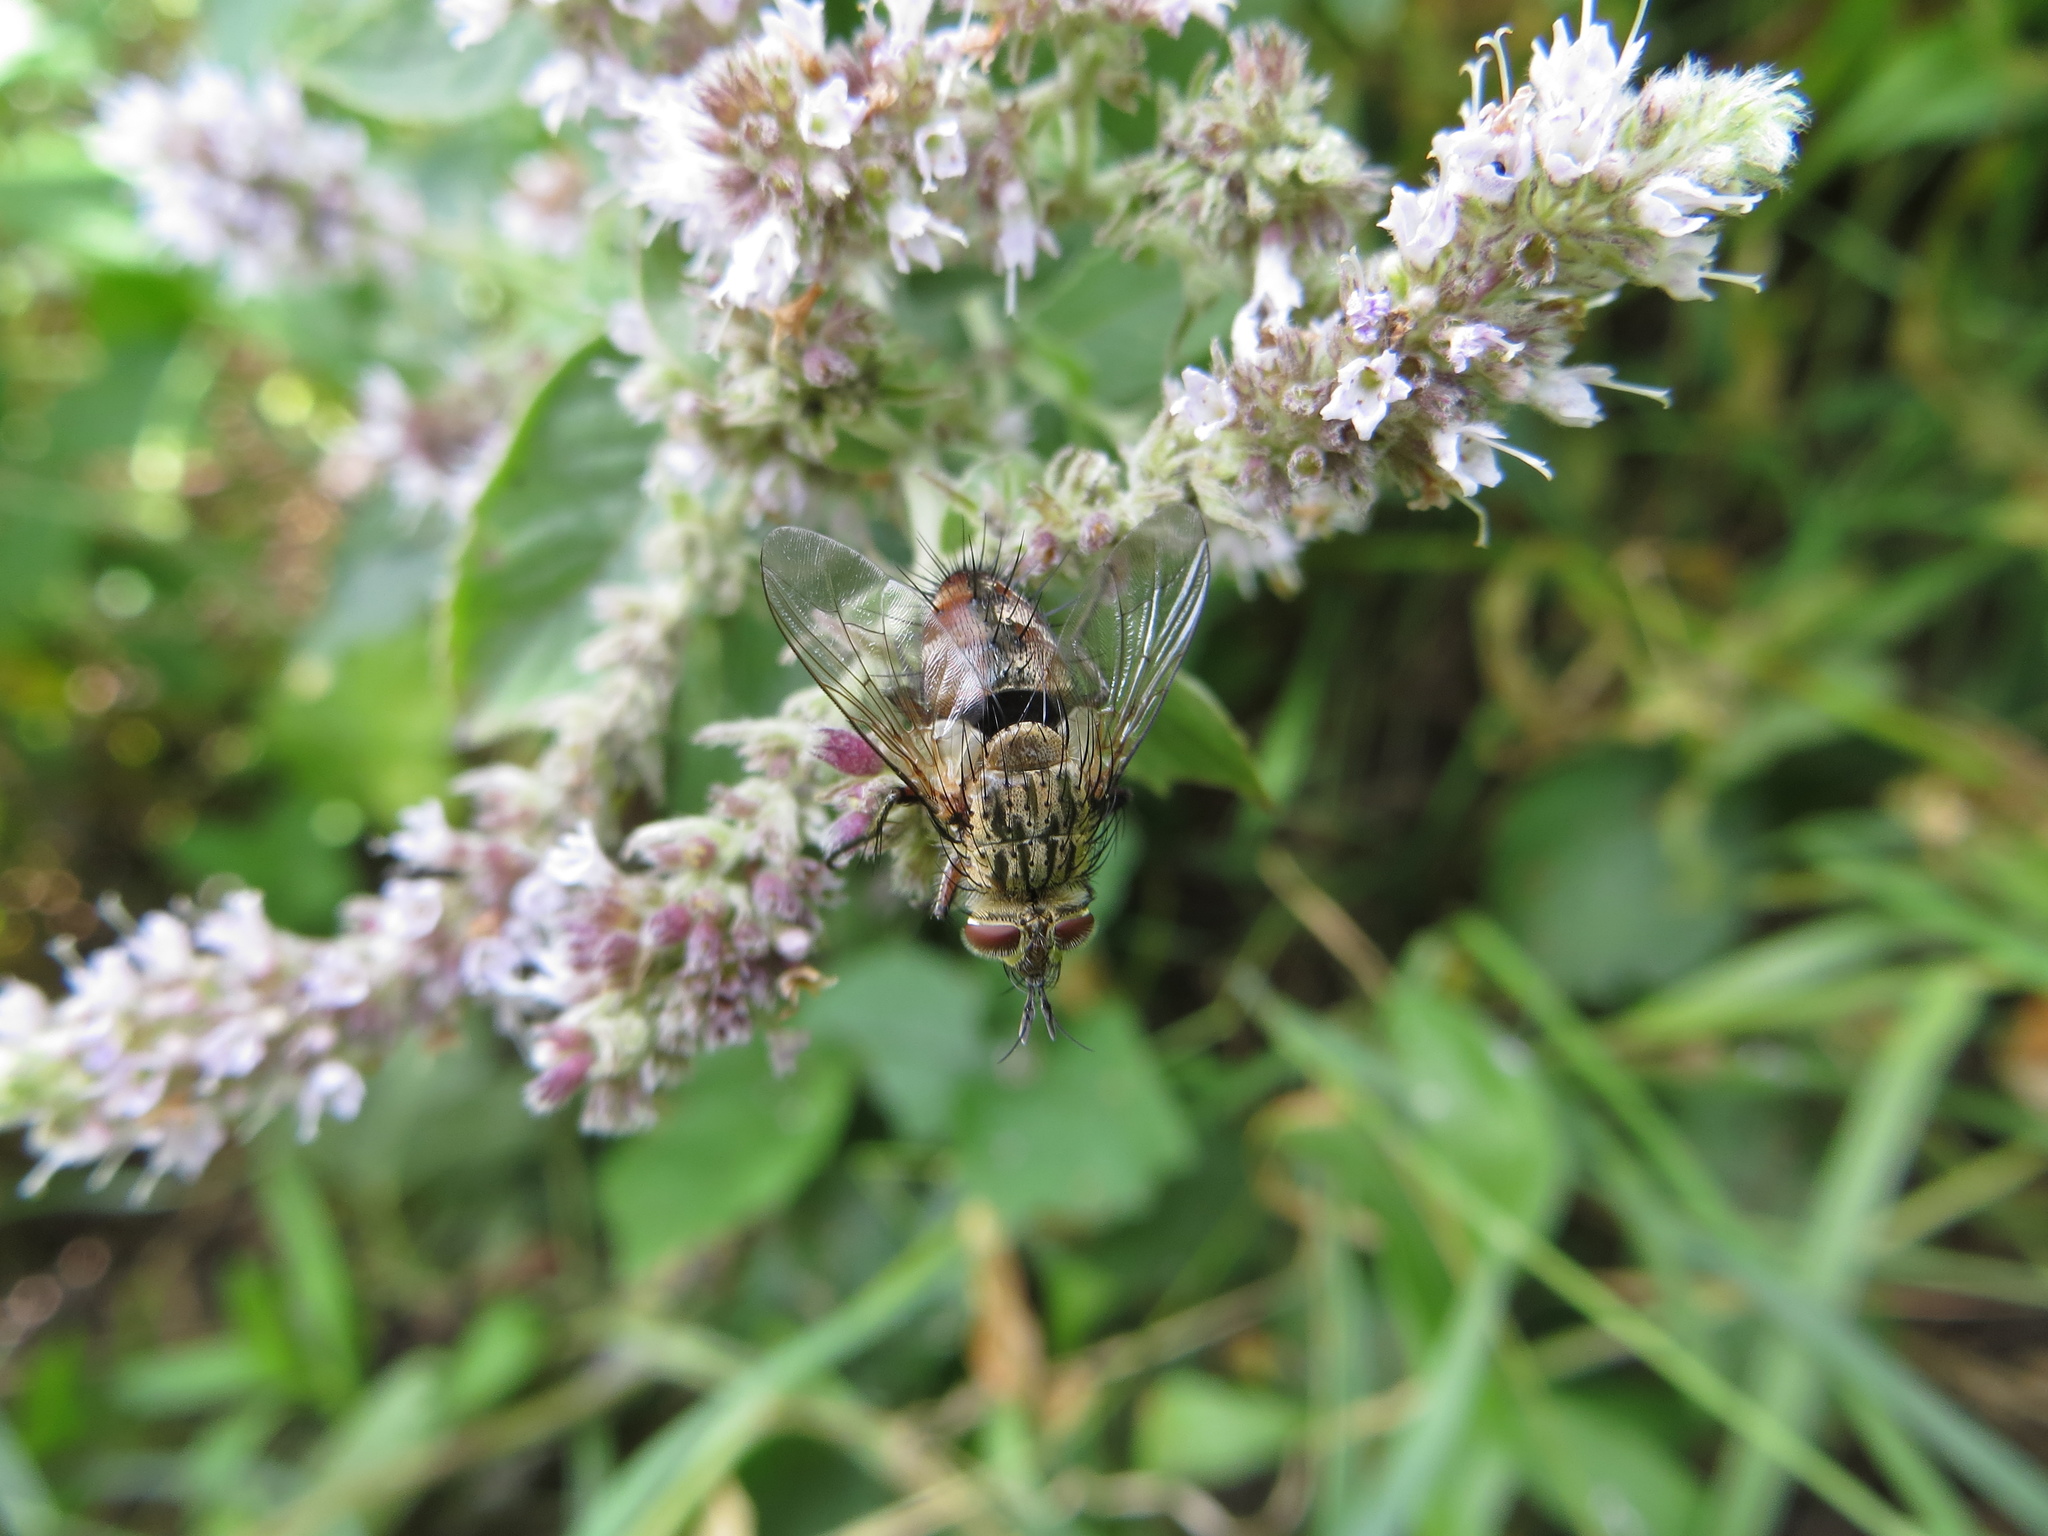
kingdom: Animalia
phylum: Arthropoda
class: Insecta
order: Diptera
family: Tachinidae
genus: Linnaemya
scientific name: Linnaemya vulpina
